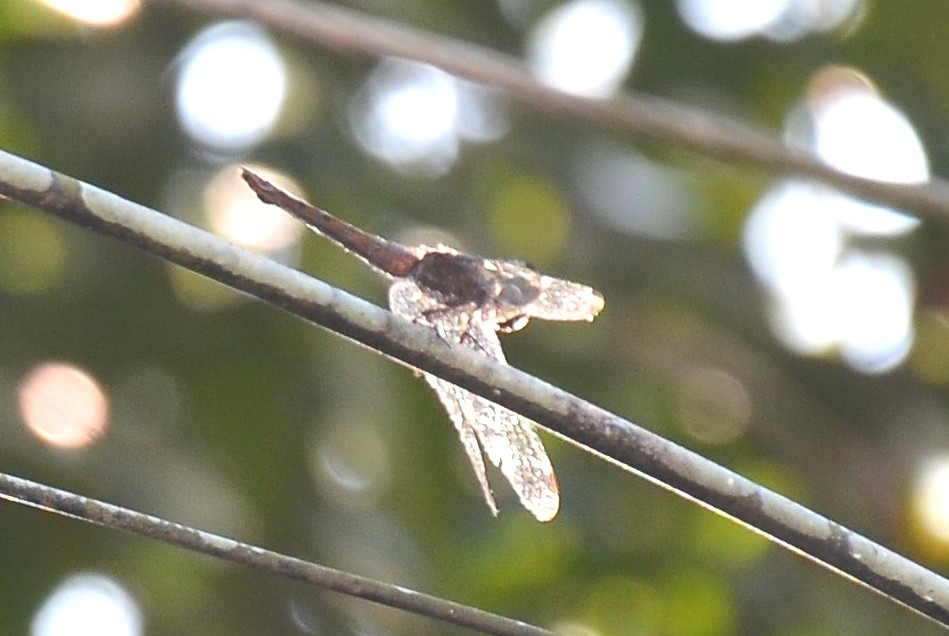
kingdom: Animalia
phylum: Arthropoda
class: Insecta
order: Odonata
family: Libellulidae
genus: Potamarcha
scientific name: Potamarcha congener
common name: Blue chaser
